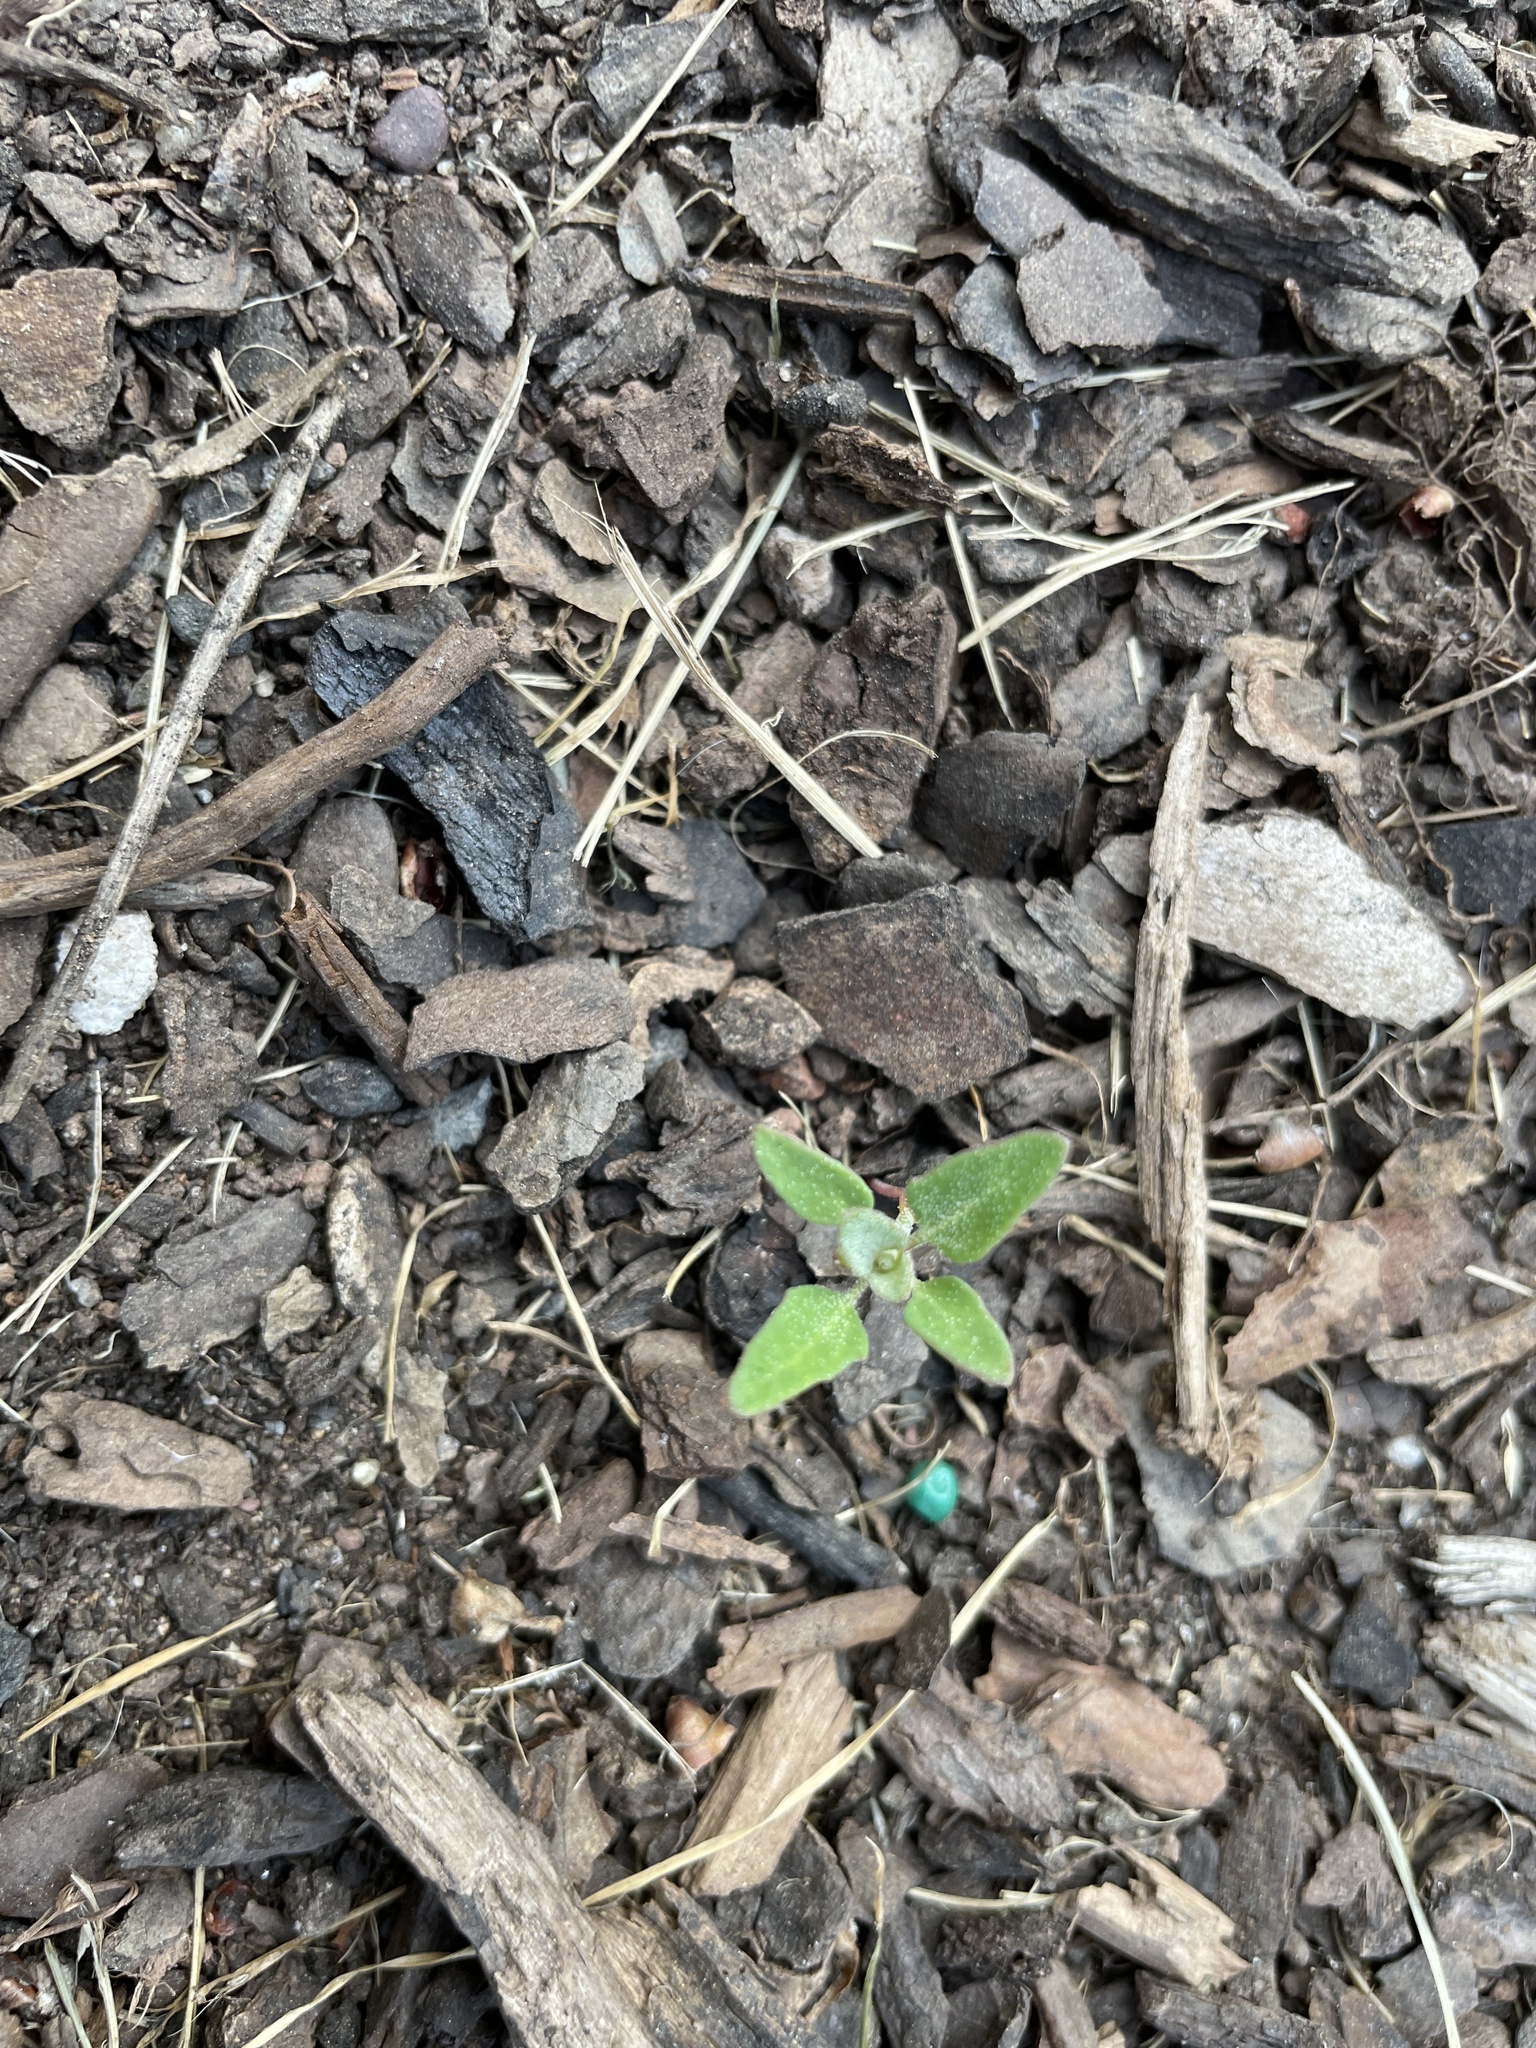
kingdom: Plantae
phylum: Tracheophyta
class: Magnoliopsida
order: Caryophyllales
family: Amaranthaceae
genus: Chenopodium
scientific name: Chenopodium album
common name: Fat-hen
